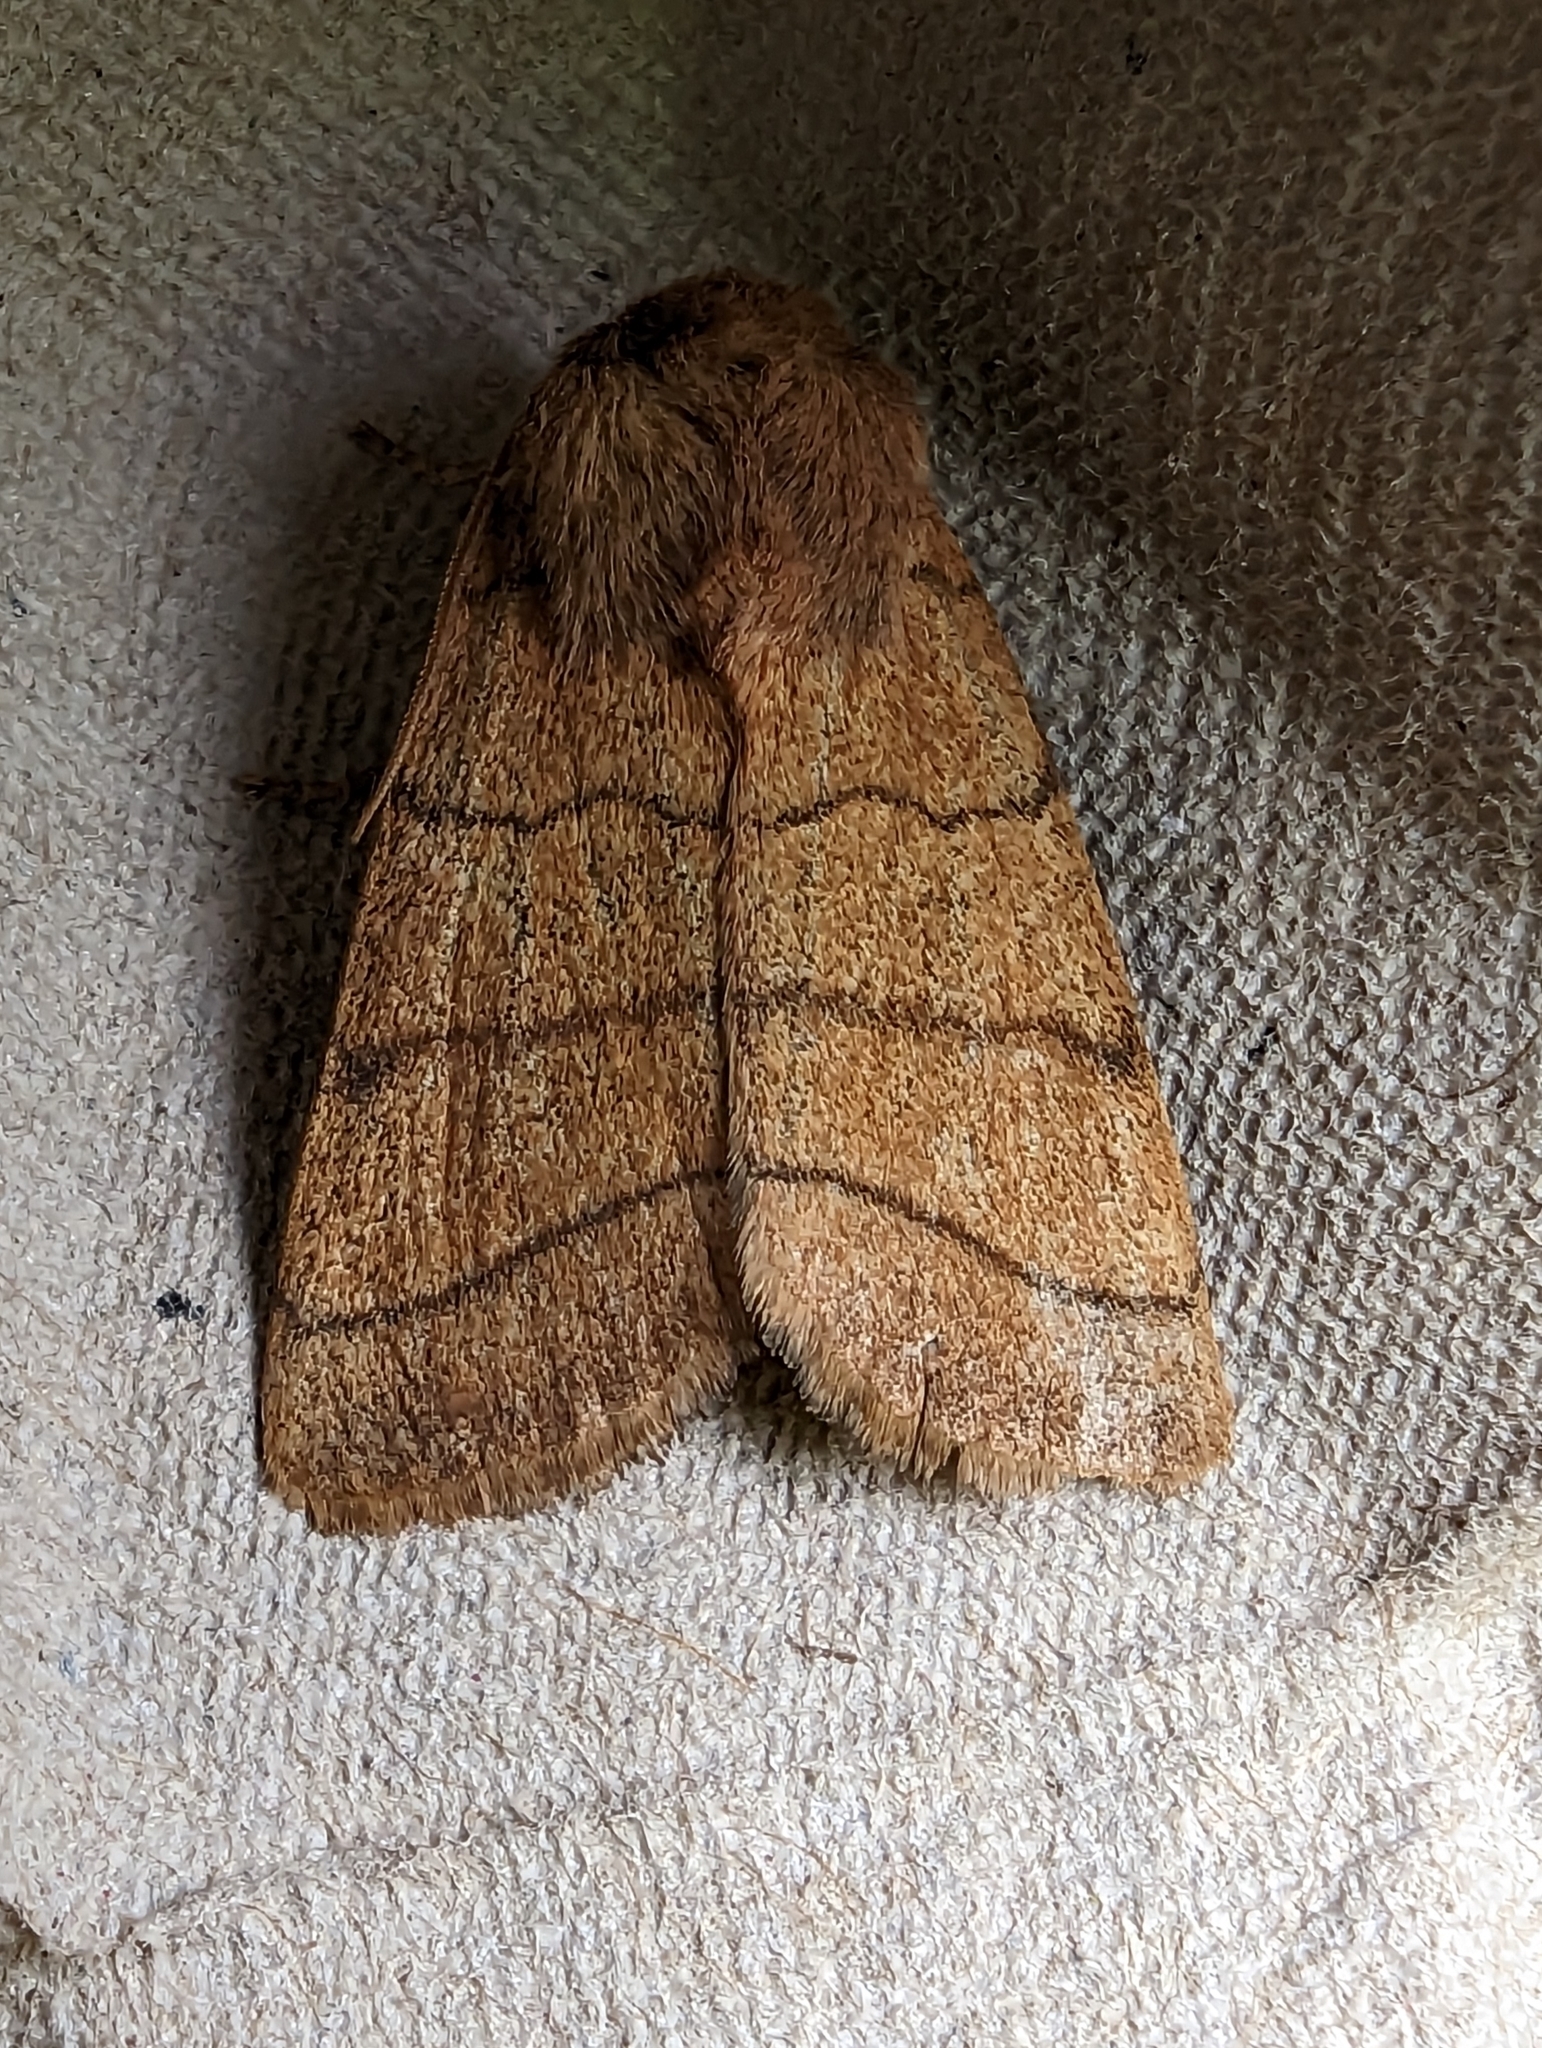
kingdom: Animalia
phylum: Arthropoda
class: Insecta
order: Lepidoptera
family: Noctuidae
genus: Charanyca
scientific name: Charanyca trigrammica
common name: Treble lines
